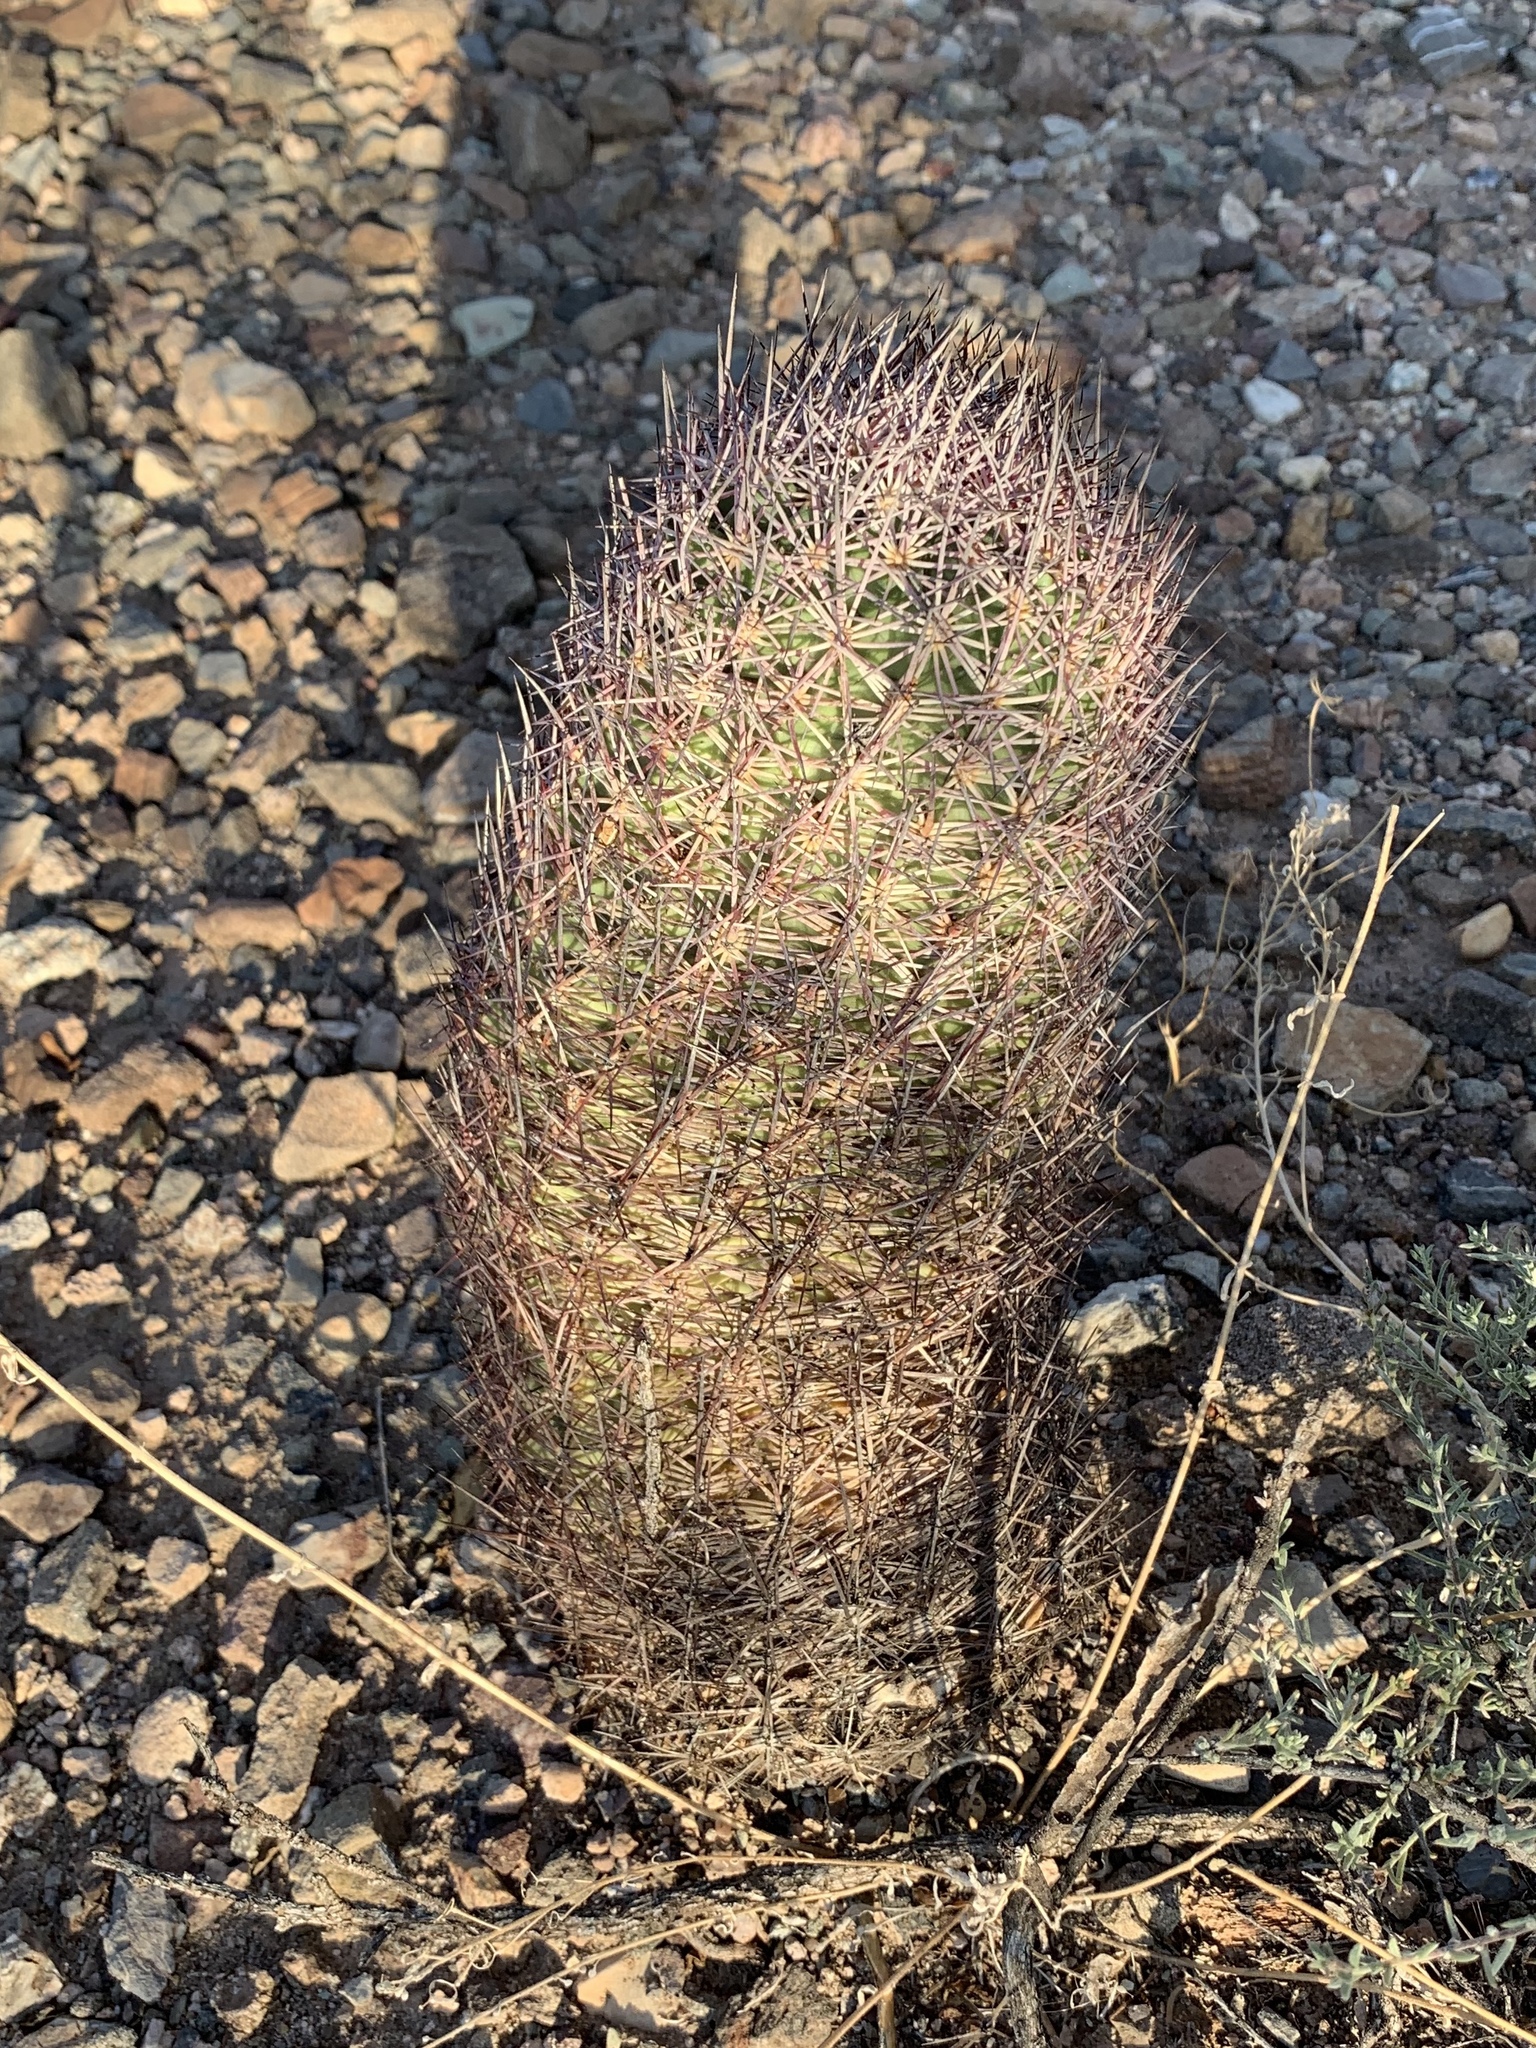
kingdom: Plantae
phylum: Tracheophyta
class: Magnoliopsida
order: Caryophyllales
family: Cactaceae
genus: Sclerocactus
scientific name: Sclerocactus johnsonii
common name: Eight-spine fishhook cactus
